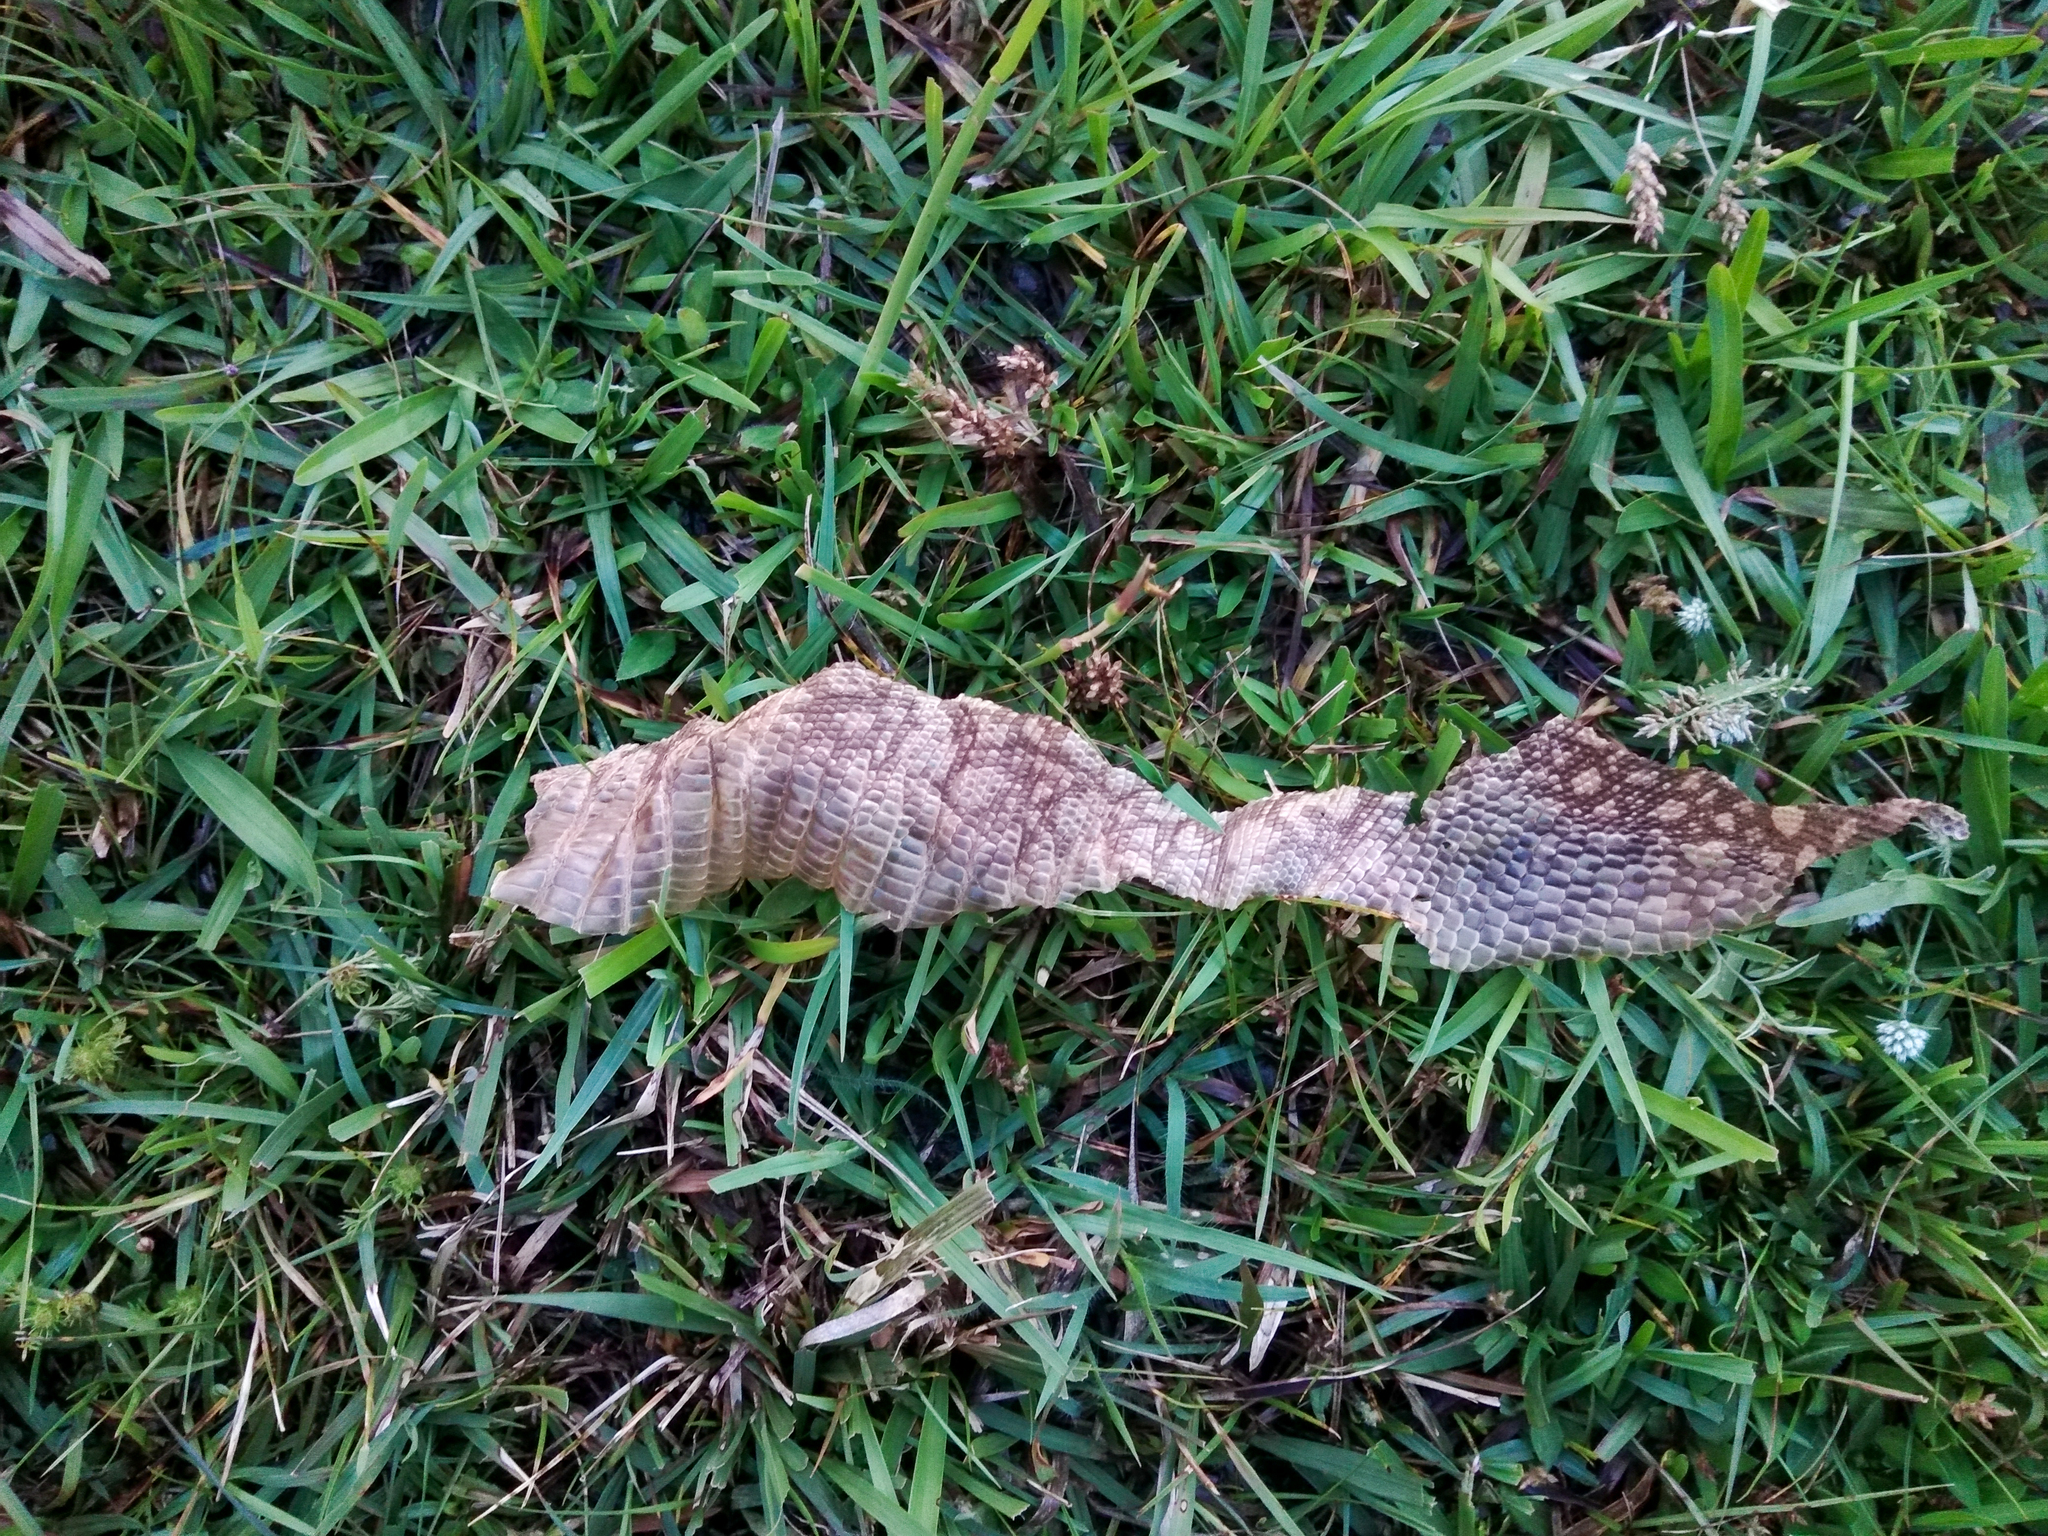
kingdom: Animalia
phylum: Chordata
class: Squamata
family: Teiidae
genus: Salvator
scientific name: Salvator merianae
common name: Argentine black and white tegu
